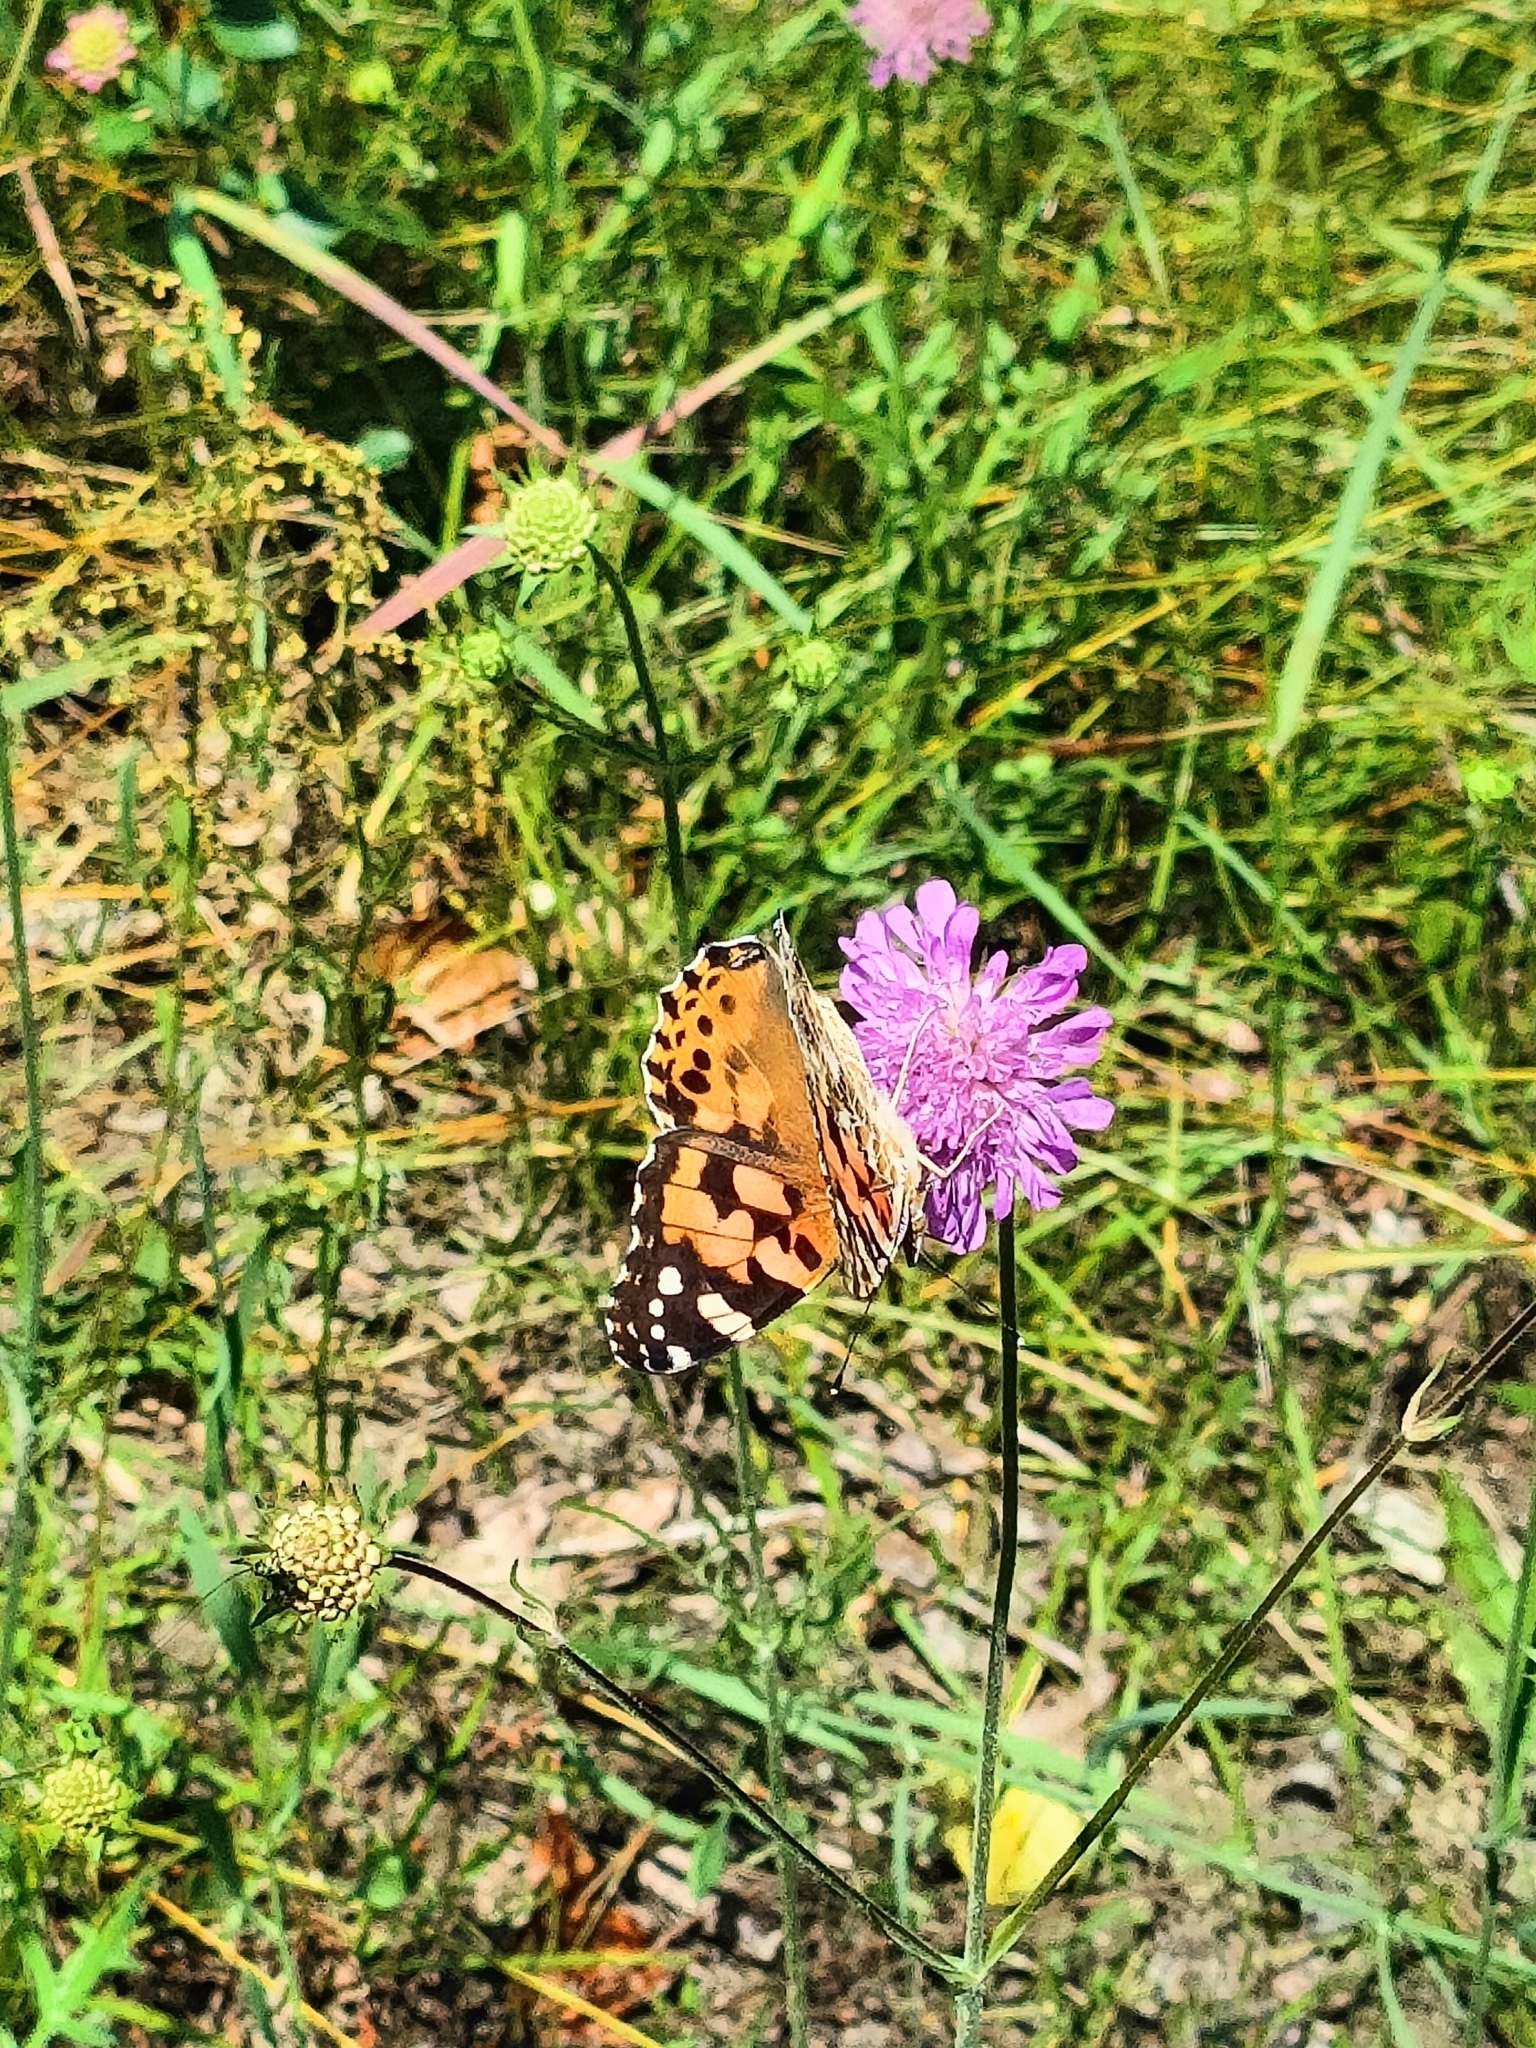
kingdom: Animalia
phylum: Arthropoda
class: Insecta
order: Lepidoptera
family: Nymphalidae
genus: Vanessa
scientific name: Vanessa cardui
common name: Painted lady
